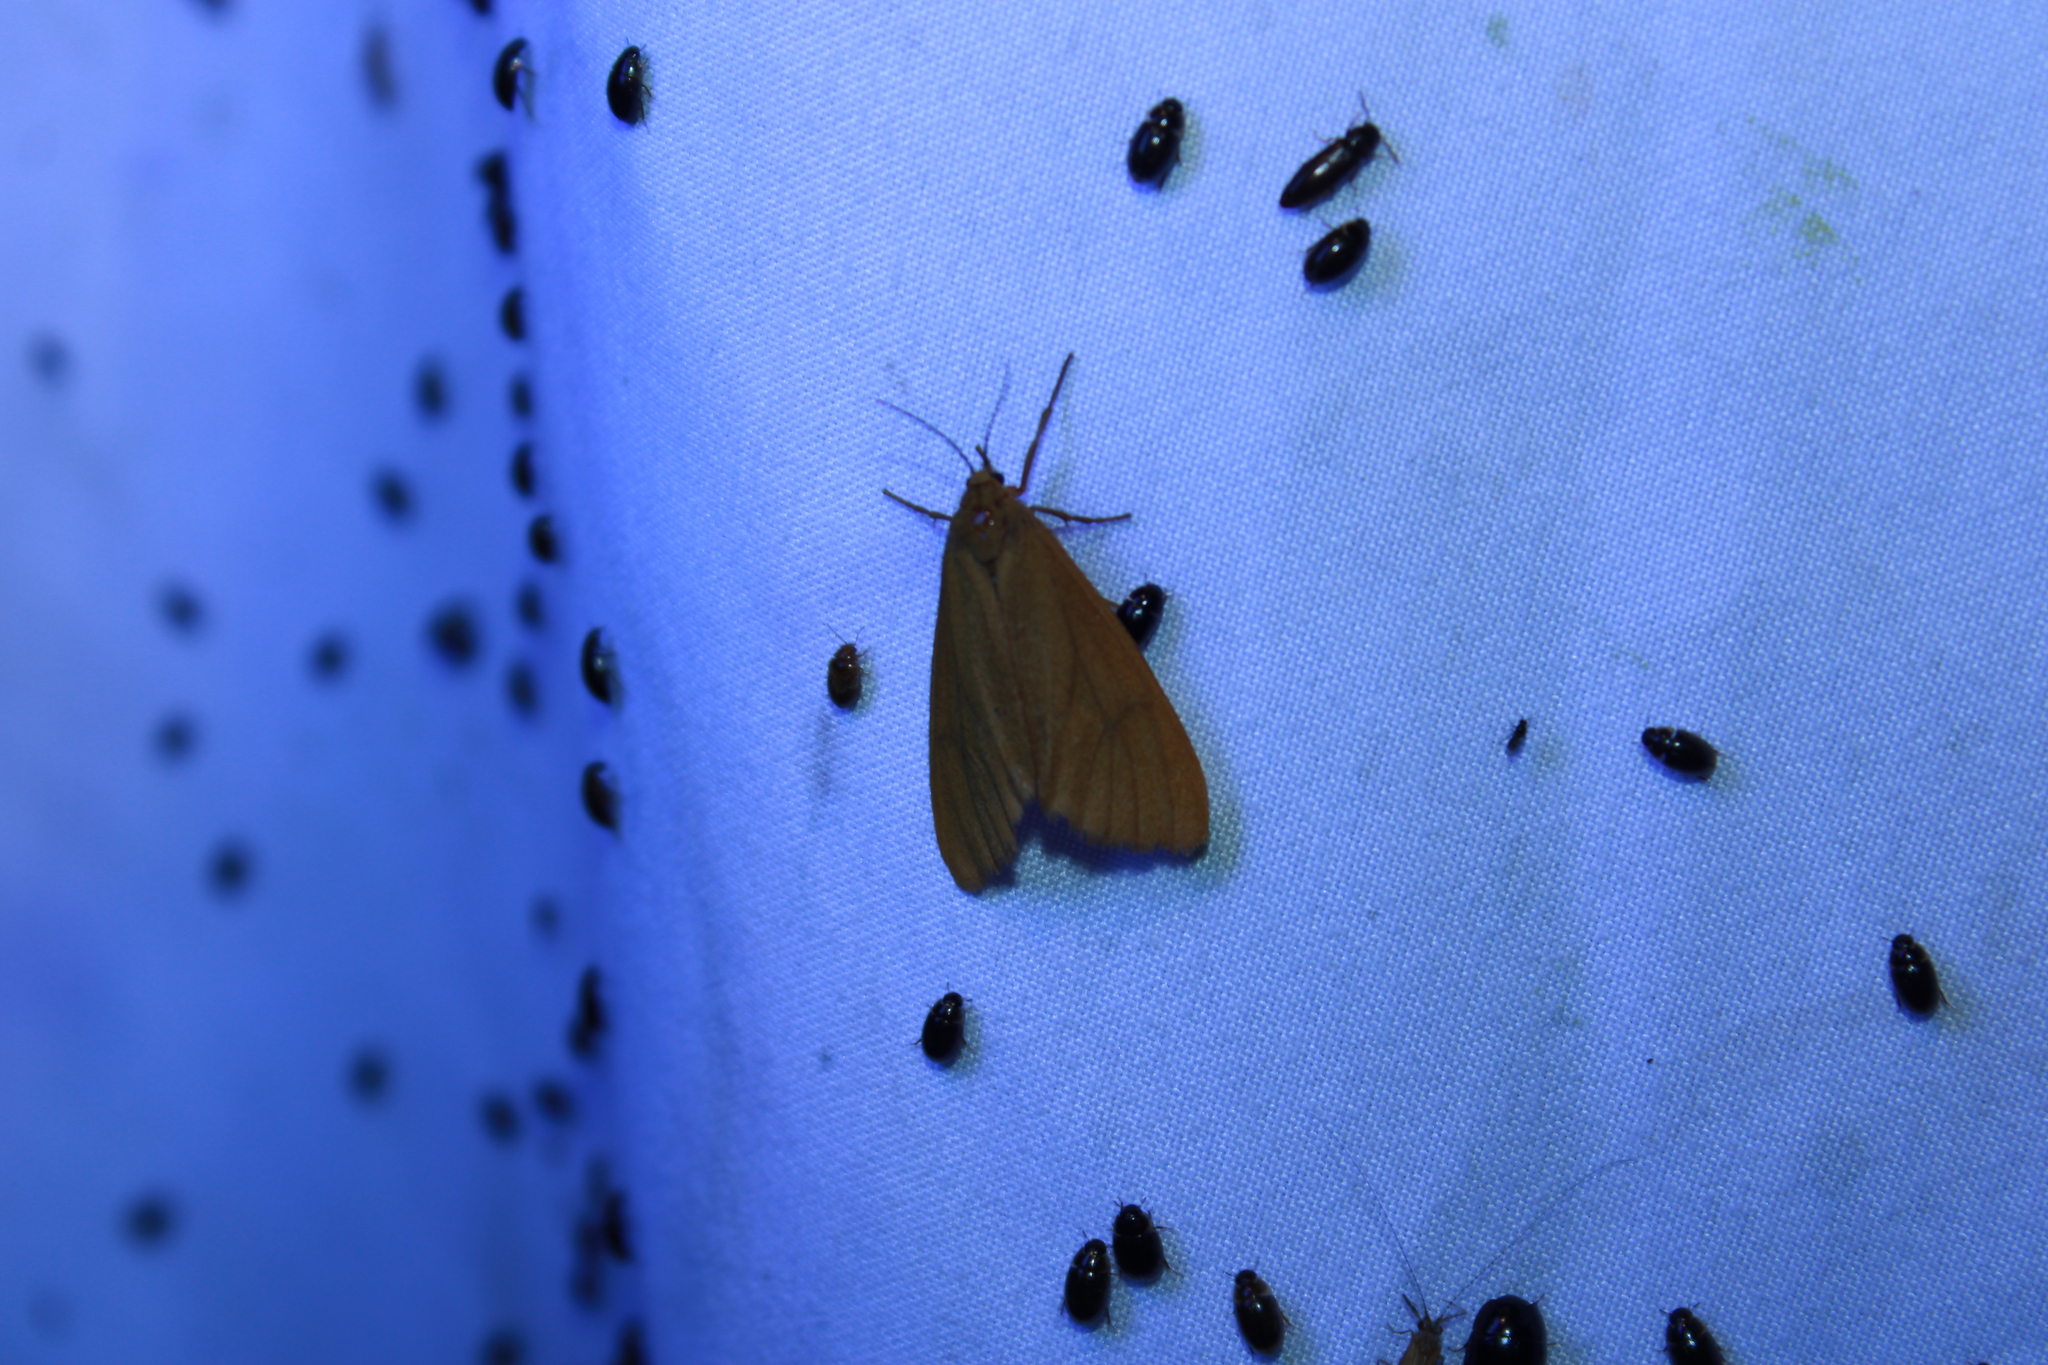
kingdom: Animalia
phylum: Arthropoda
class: Insecta
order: Lepidoptera
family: Erebidae
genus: Virbia
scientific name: Virbia opella
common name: Tawny virbia moth
